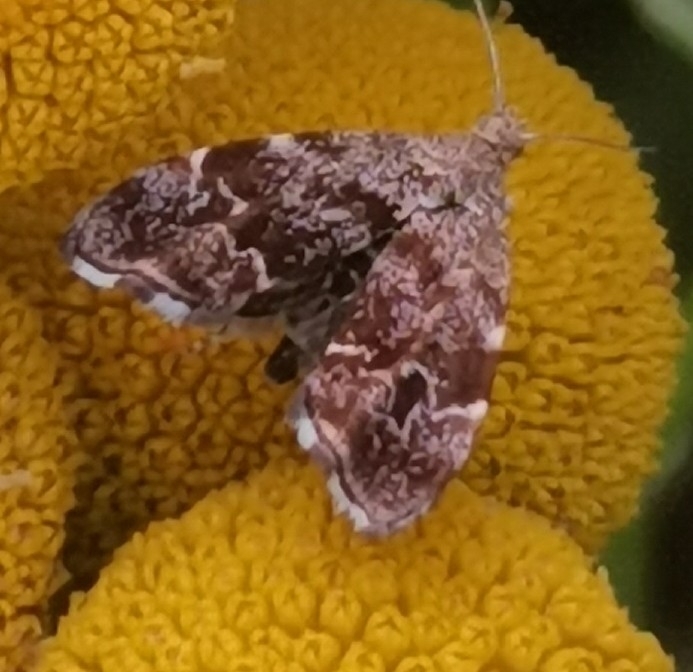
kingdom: Animalia
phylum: Arthropoda
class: Insecta
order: Lepidoptera
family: Choreutidae
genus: Anthophila
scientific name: Anthophila fabriciana
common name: Nettle-tap
